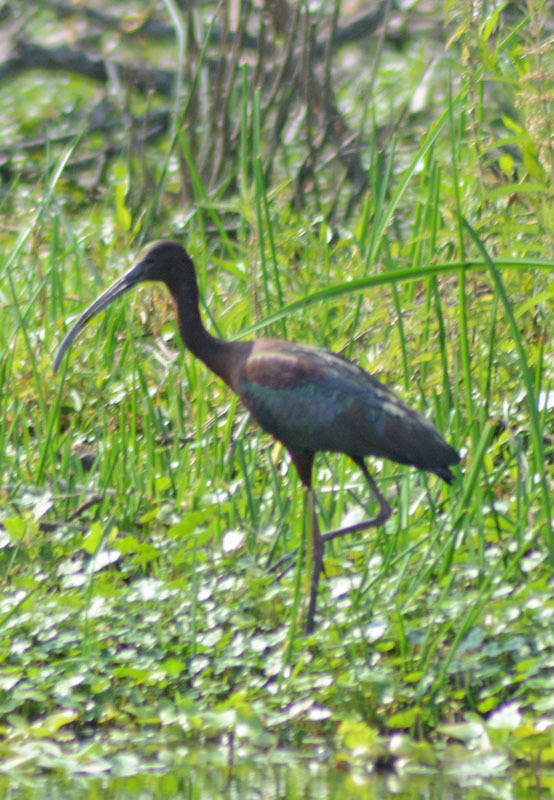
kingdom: Animalia
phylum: Chordata
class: Aves
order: Pelecaniformes
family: Threskiornithidae
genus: Plegadis
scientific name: Plegadis chihi
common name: White-faced ibis
